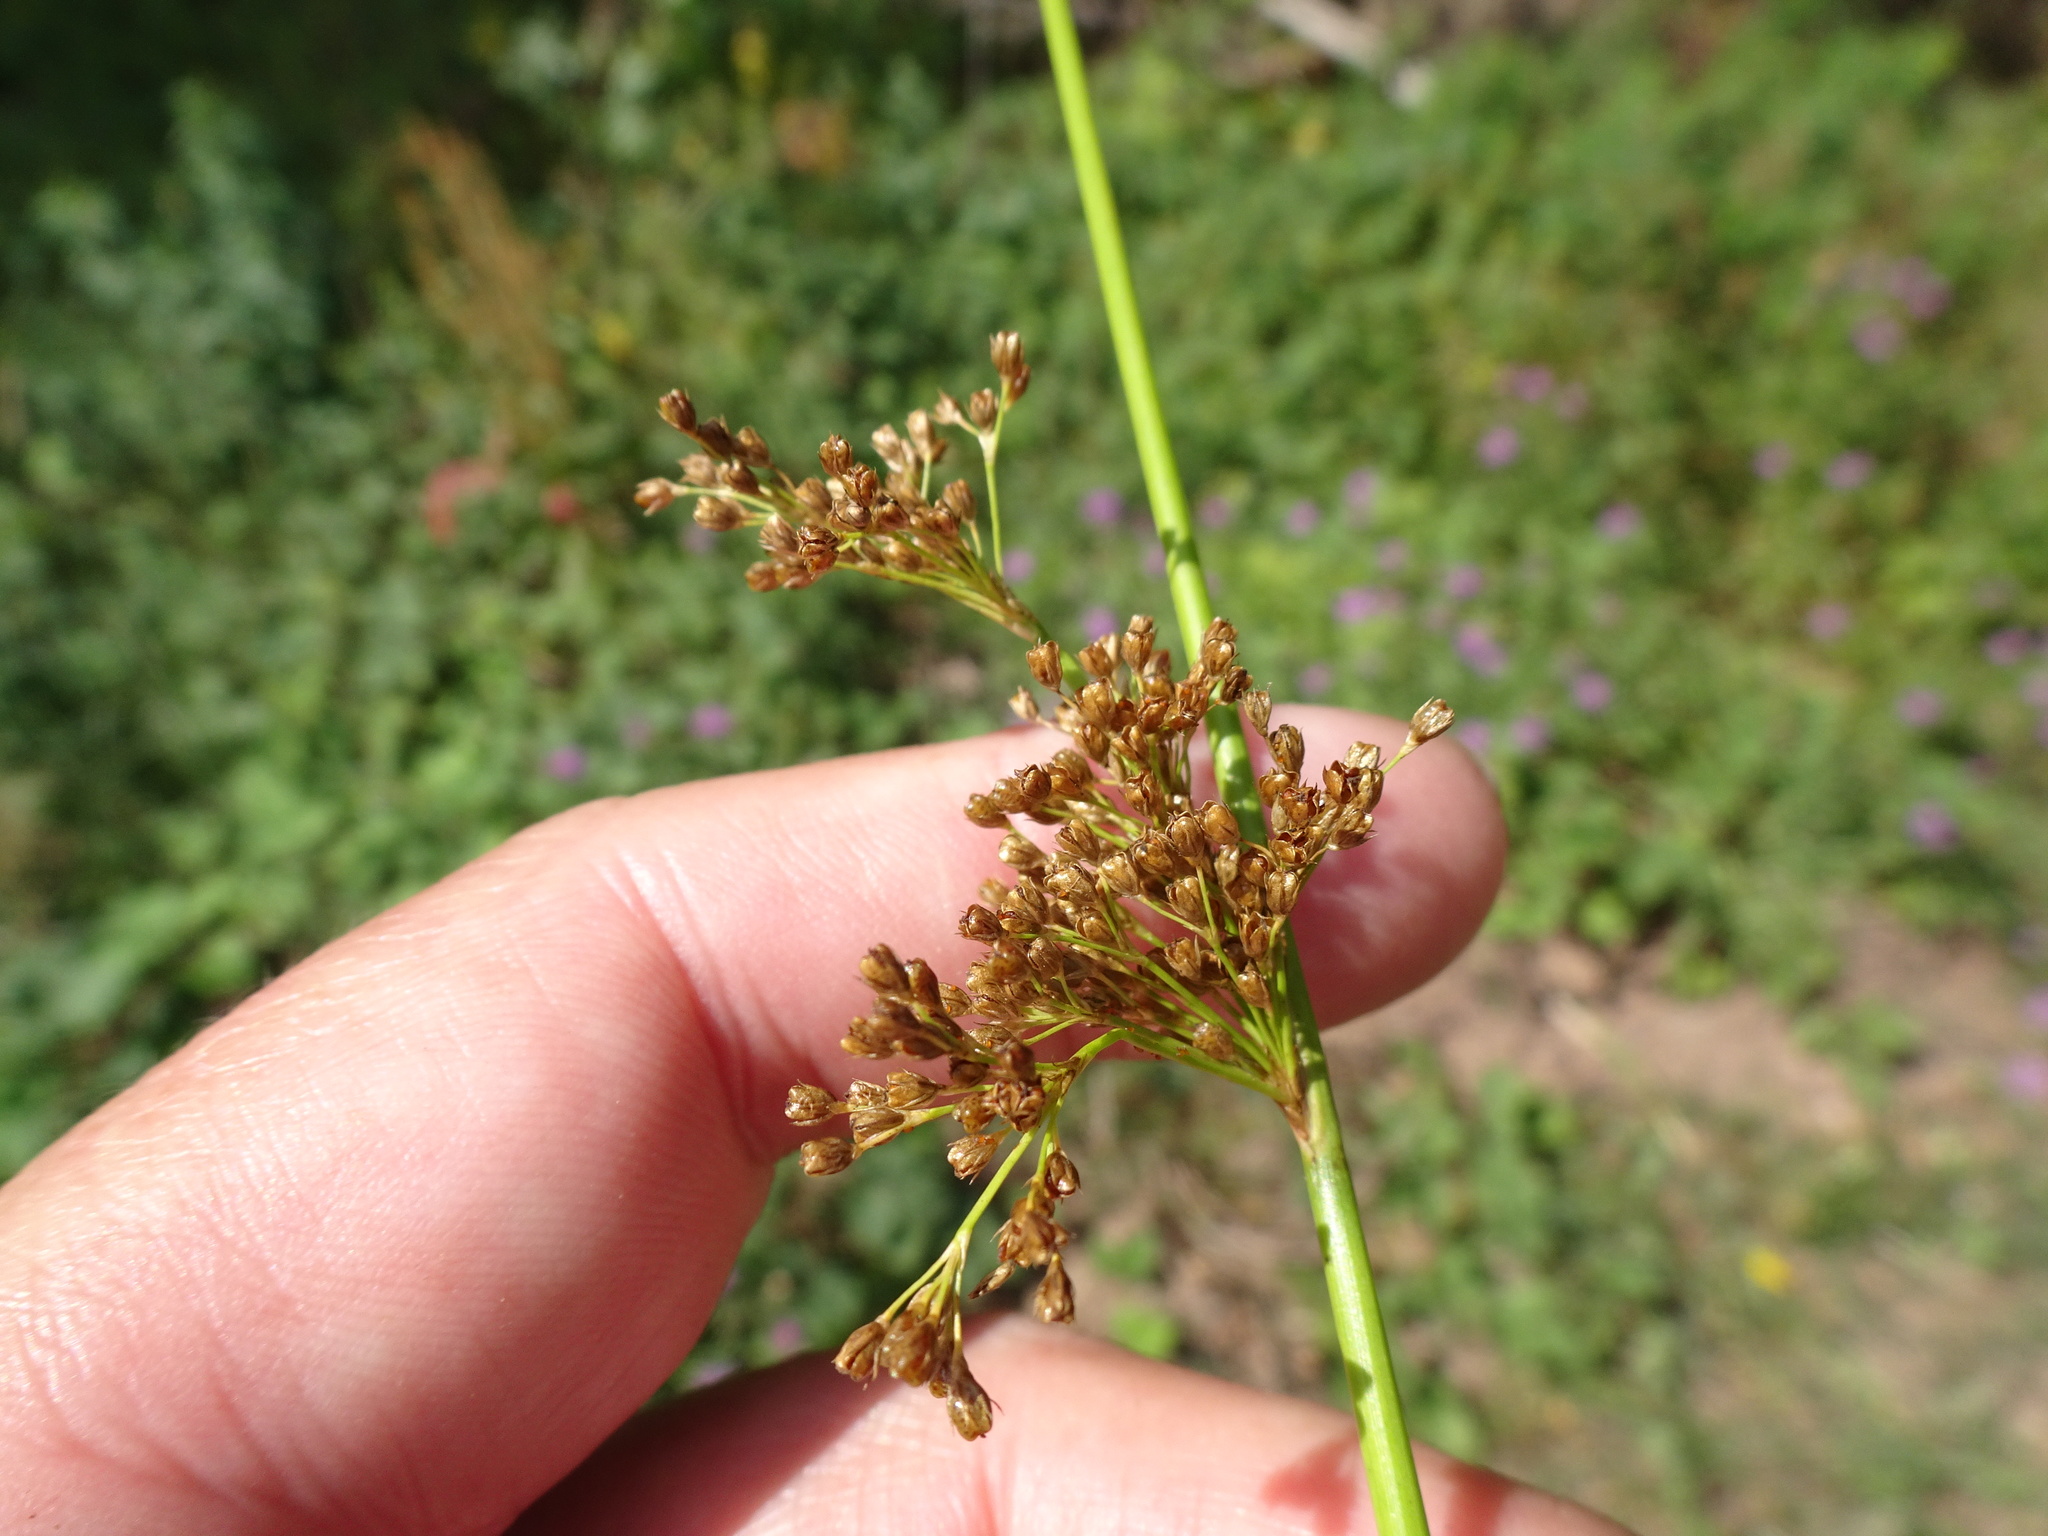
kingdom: Plantae
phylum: Tracheophyta
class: Liliopsida
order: Poales
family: Juncaceae
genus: Juncus
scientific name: Juncus effusus
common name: Soft rush
